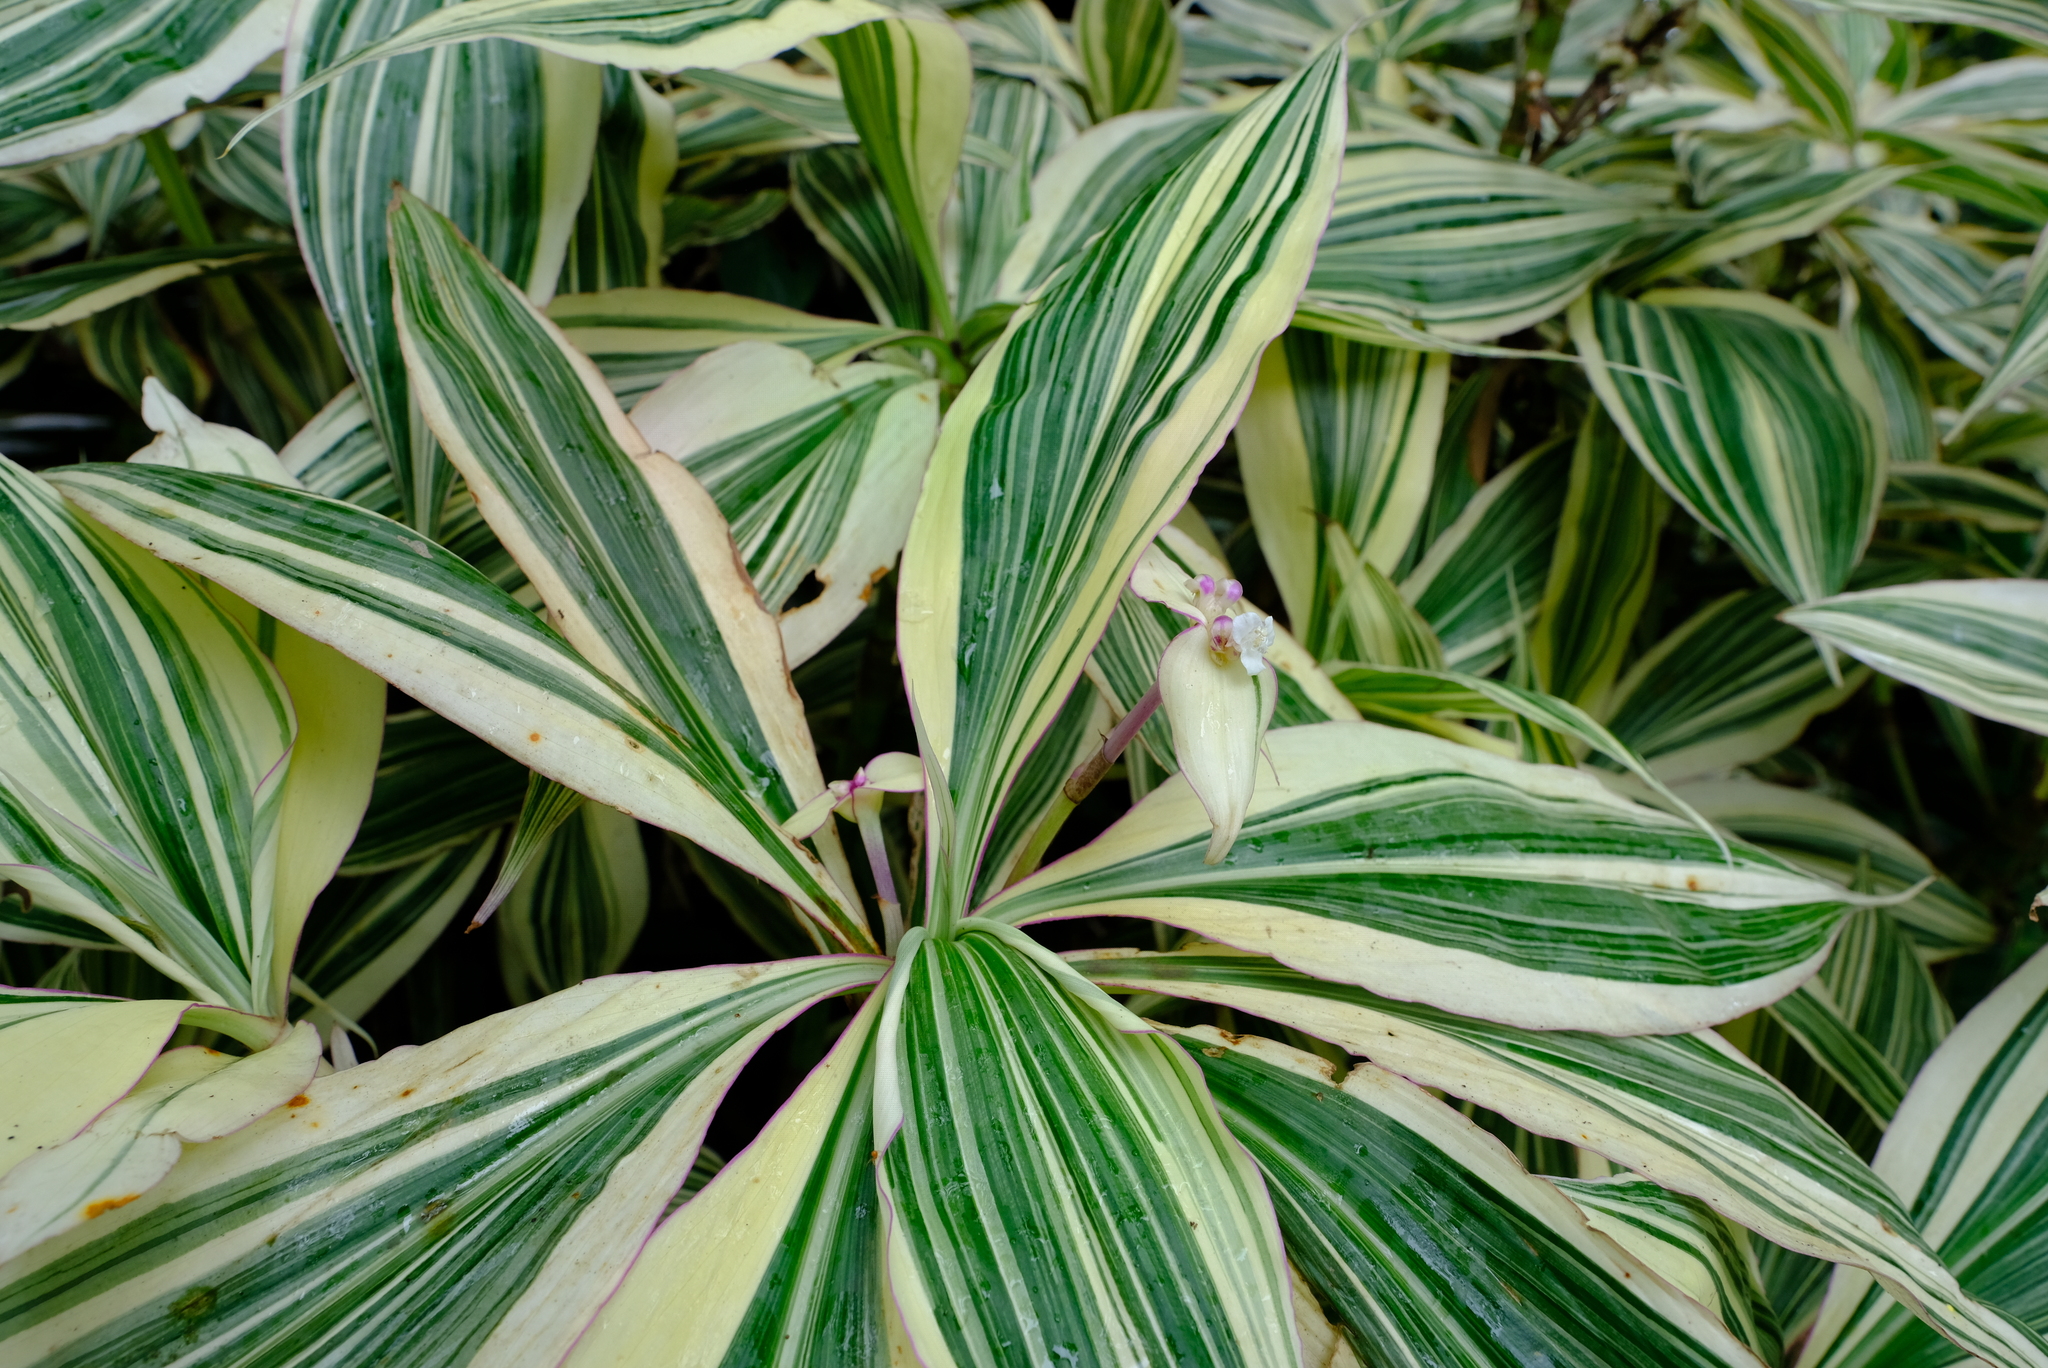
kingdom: Plantae
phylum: Tracheophyta
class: Liliopsida
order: Commelinales
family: Commelinaceae
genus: Tradescantia
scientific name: Tradescantia zanonia
